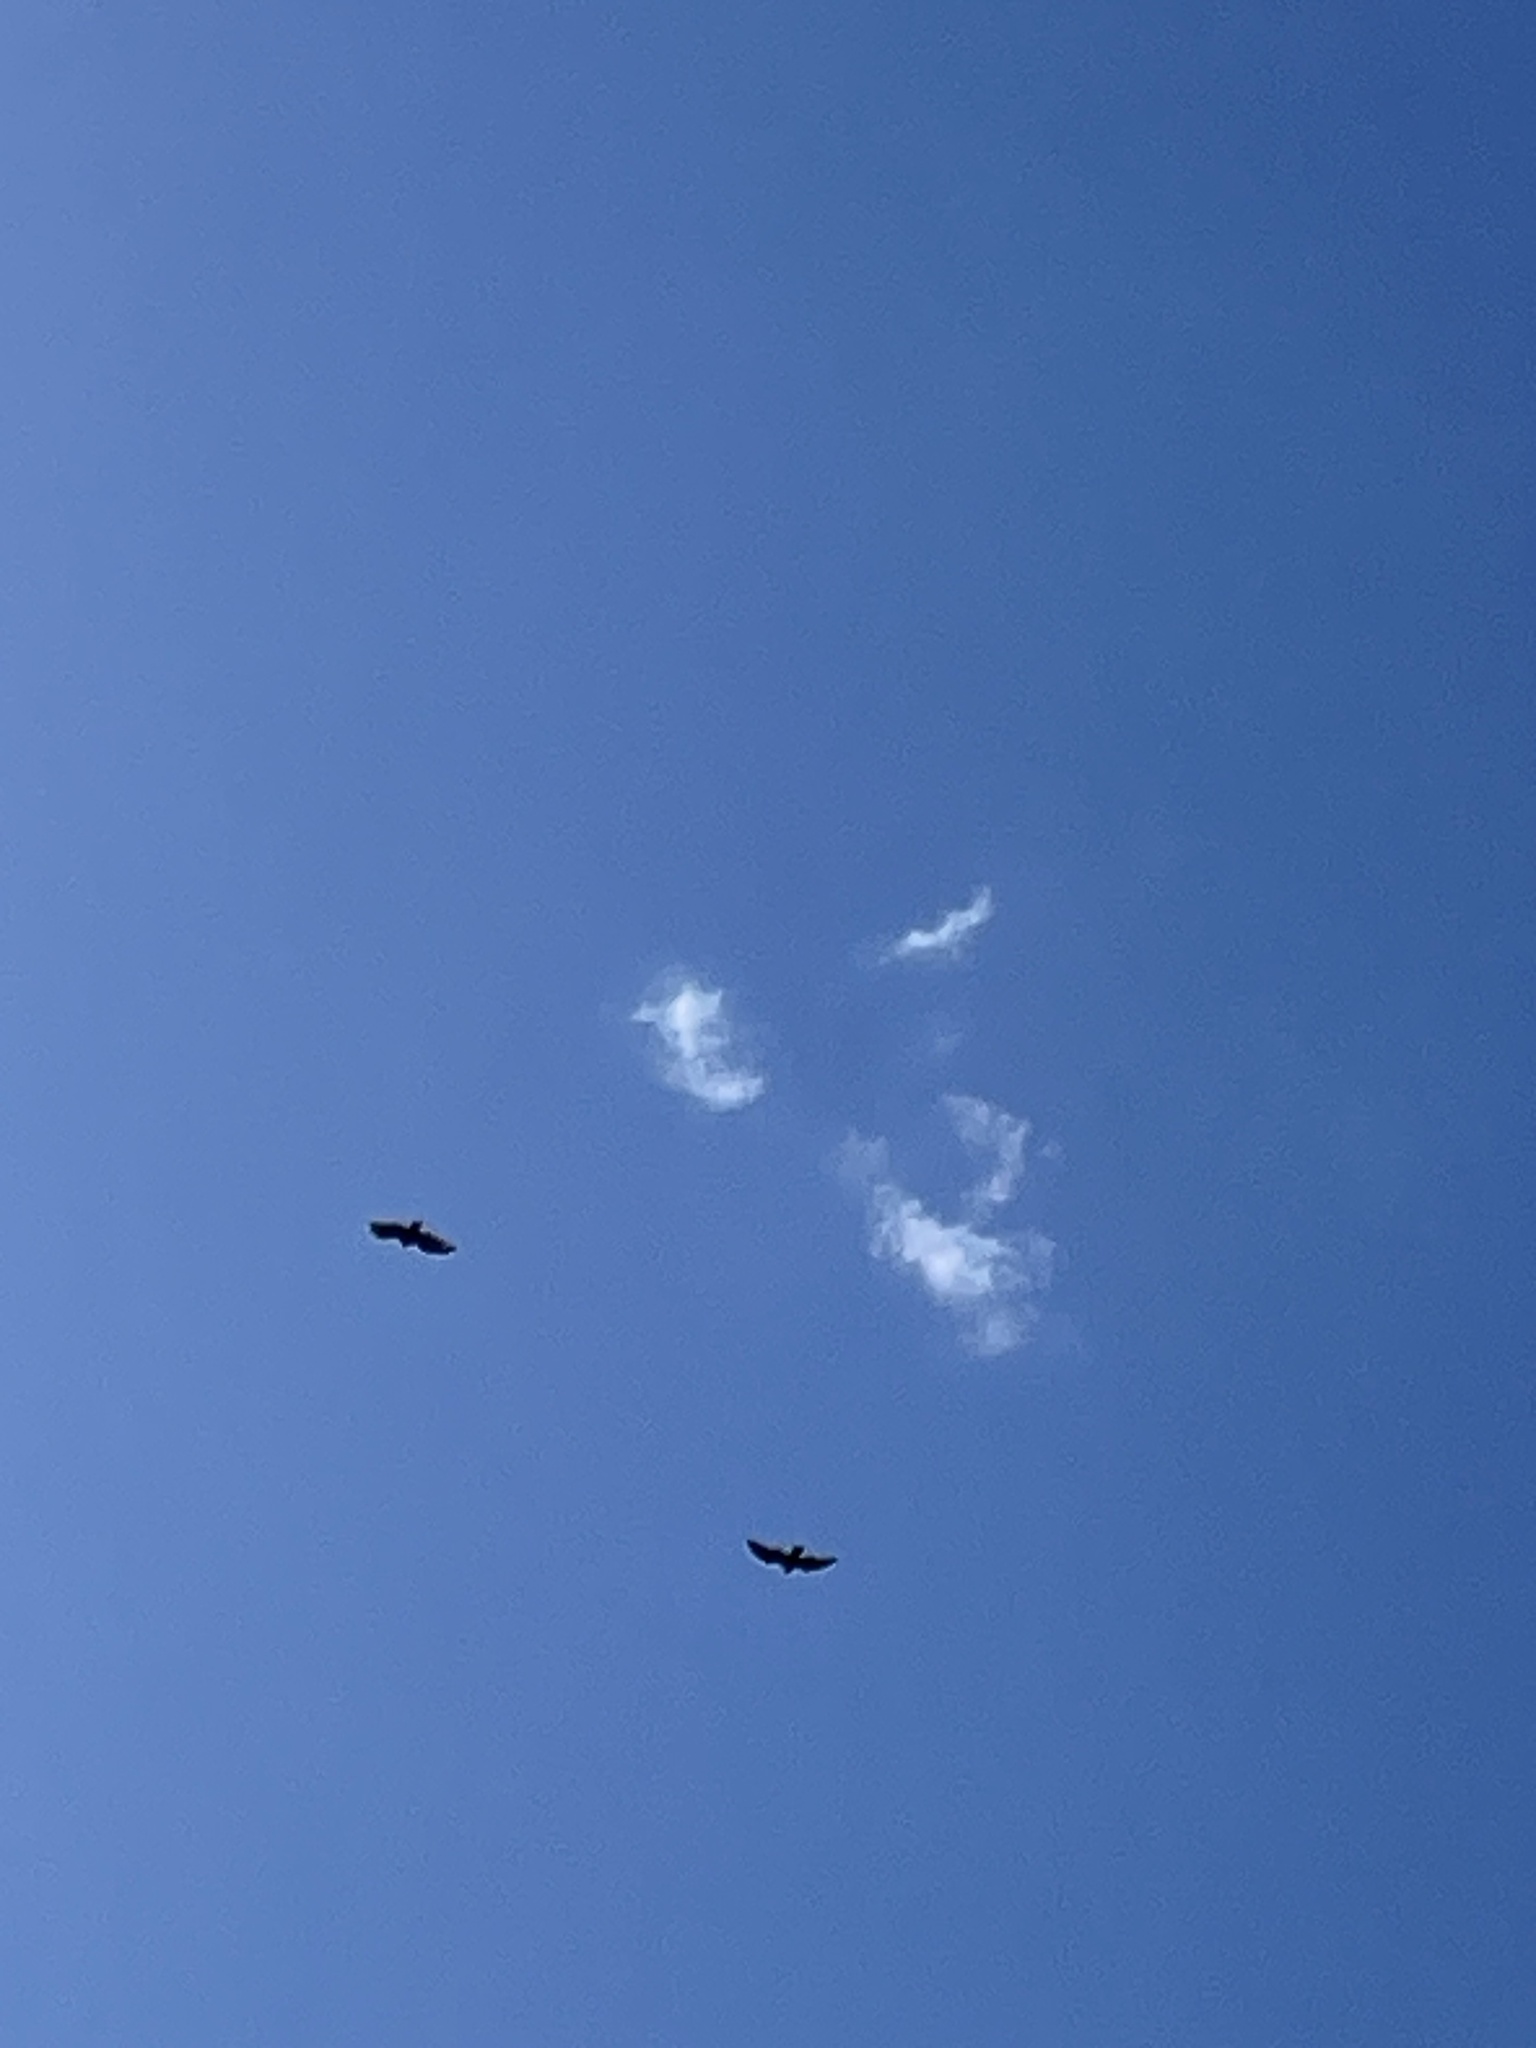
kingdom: Animalia
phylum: Chordata
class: Aves
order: Accipitriformes
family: Cathartidae
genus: Cathartes
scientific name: Cathartes aura
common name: Turkey vulture
